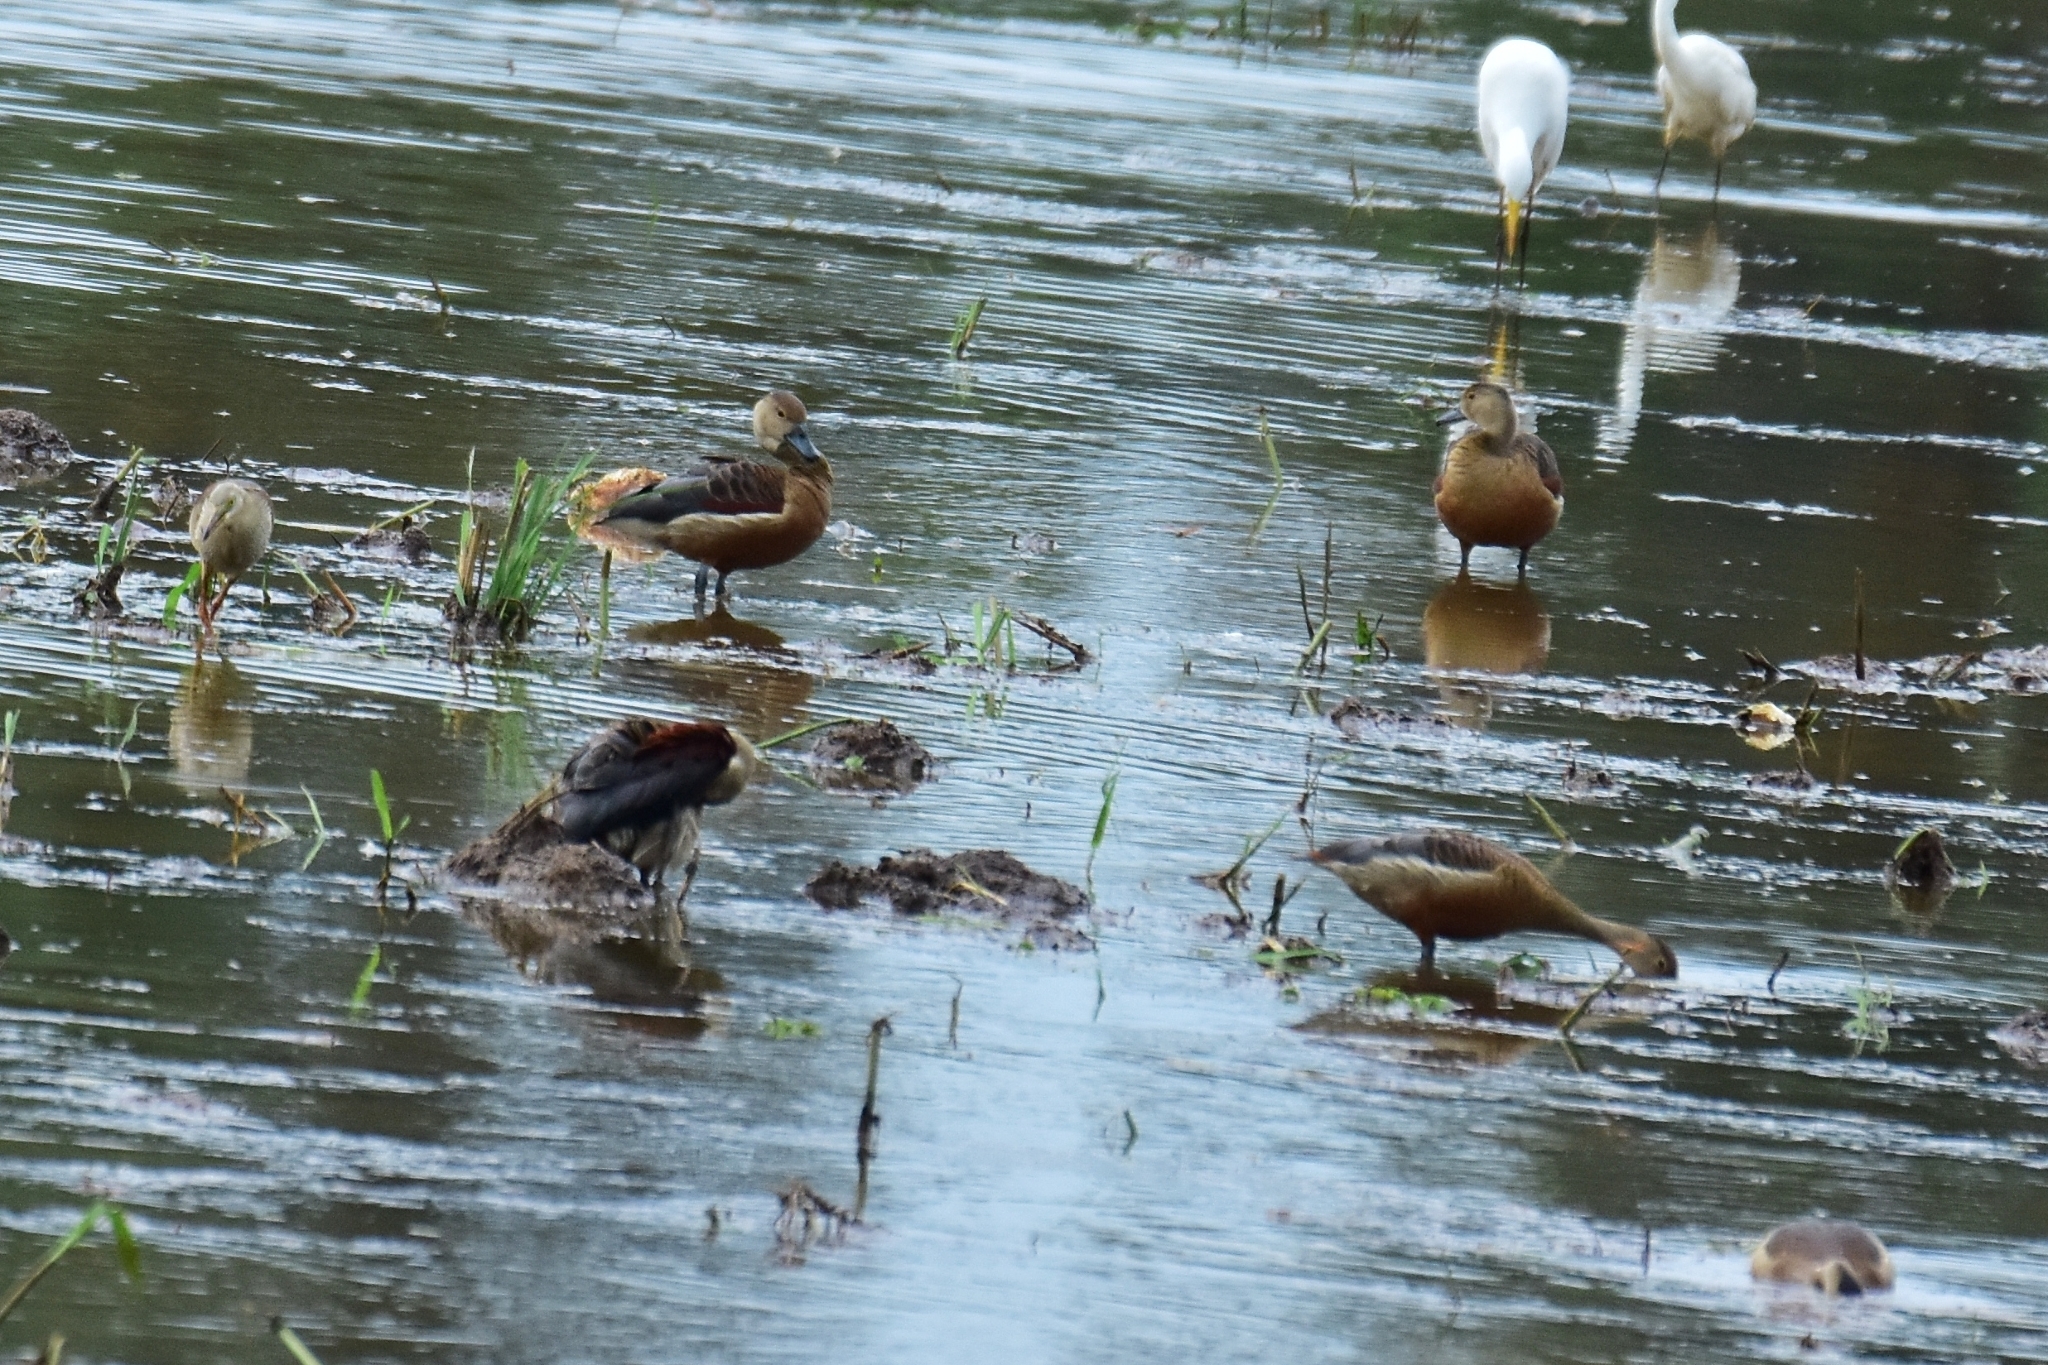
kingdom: Animalia
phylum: Chordata
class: Aves
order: Anseriformes
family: Anatidae
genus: Dendrocygna
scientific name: Dendrocygna javanica
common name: Lesser whistling-duck
